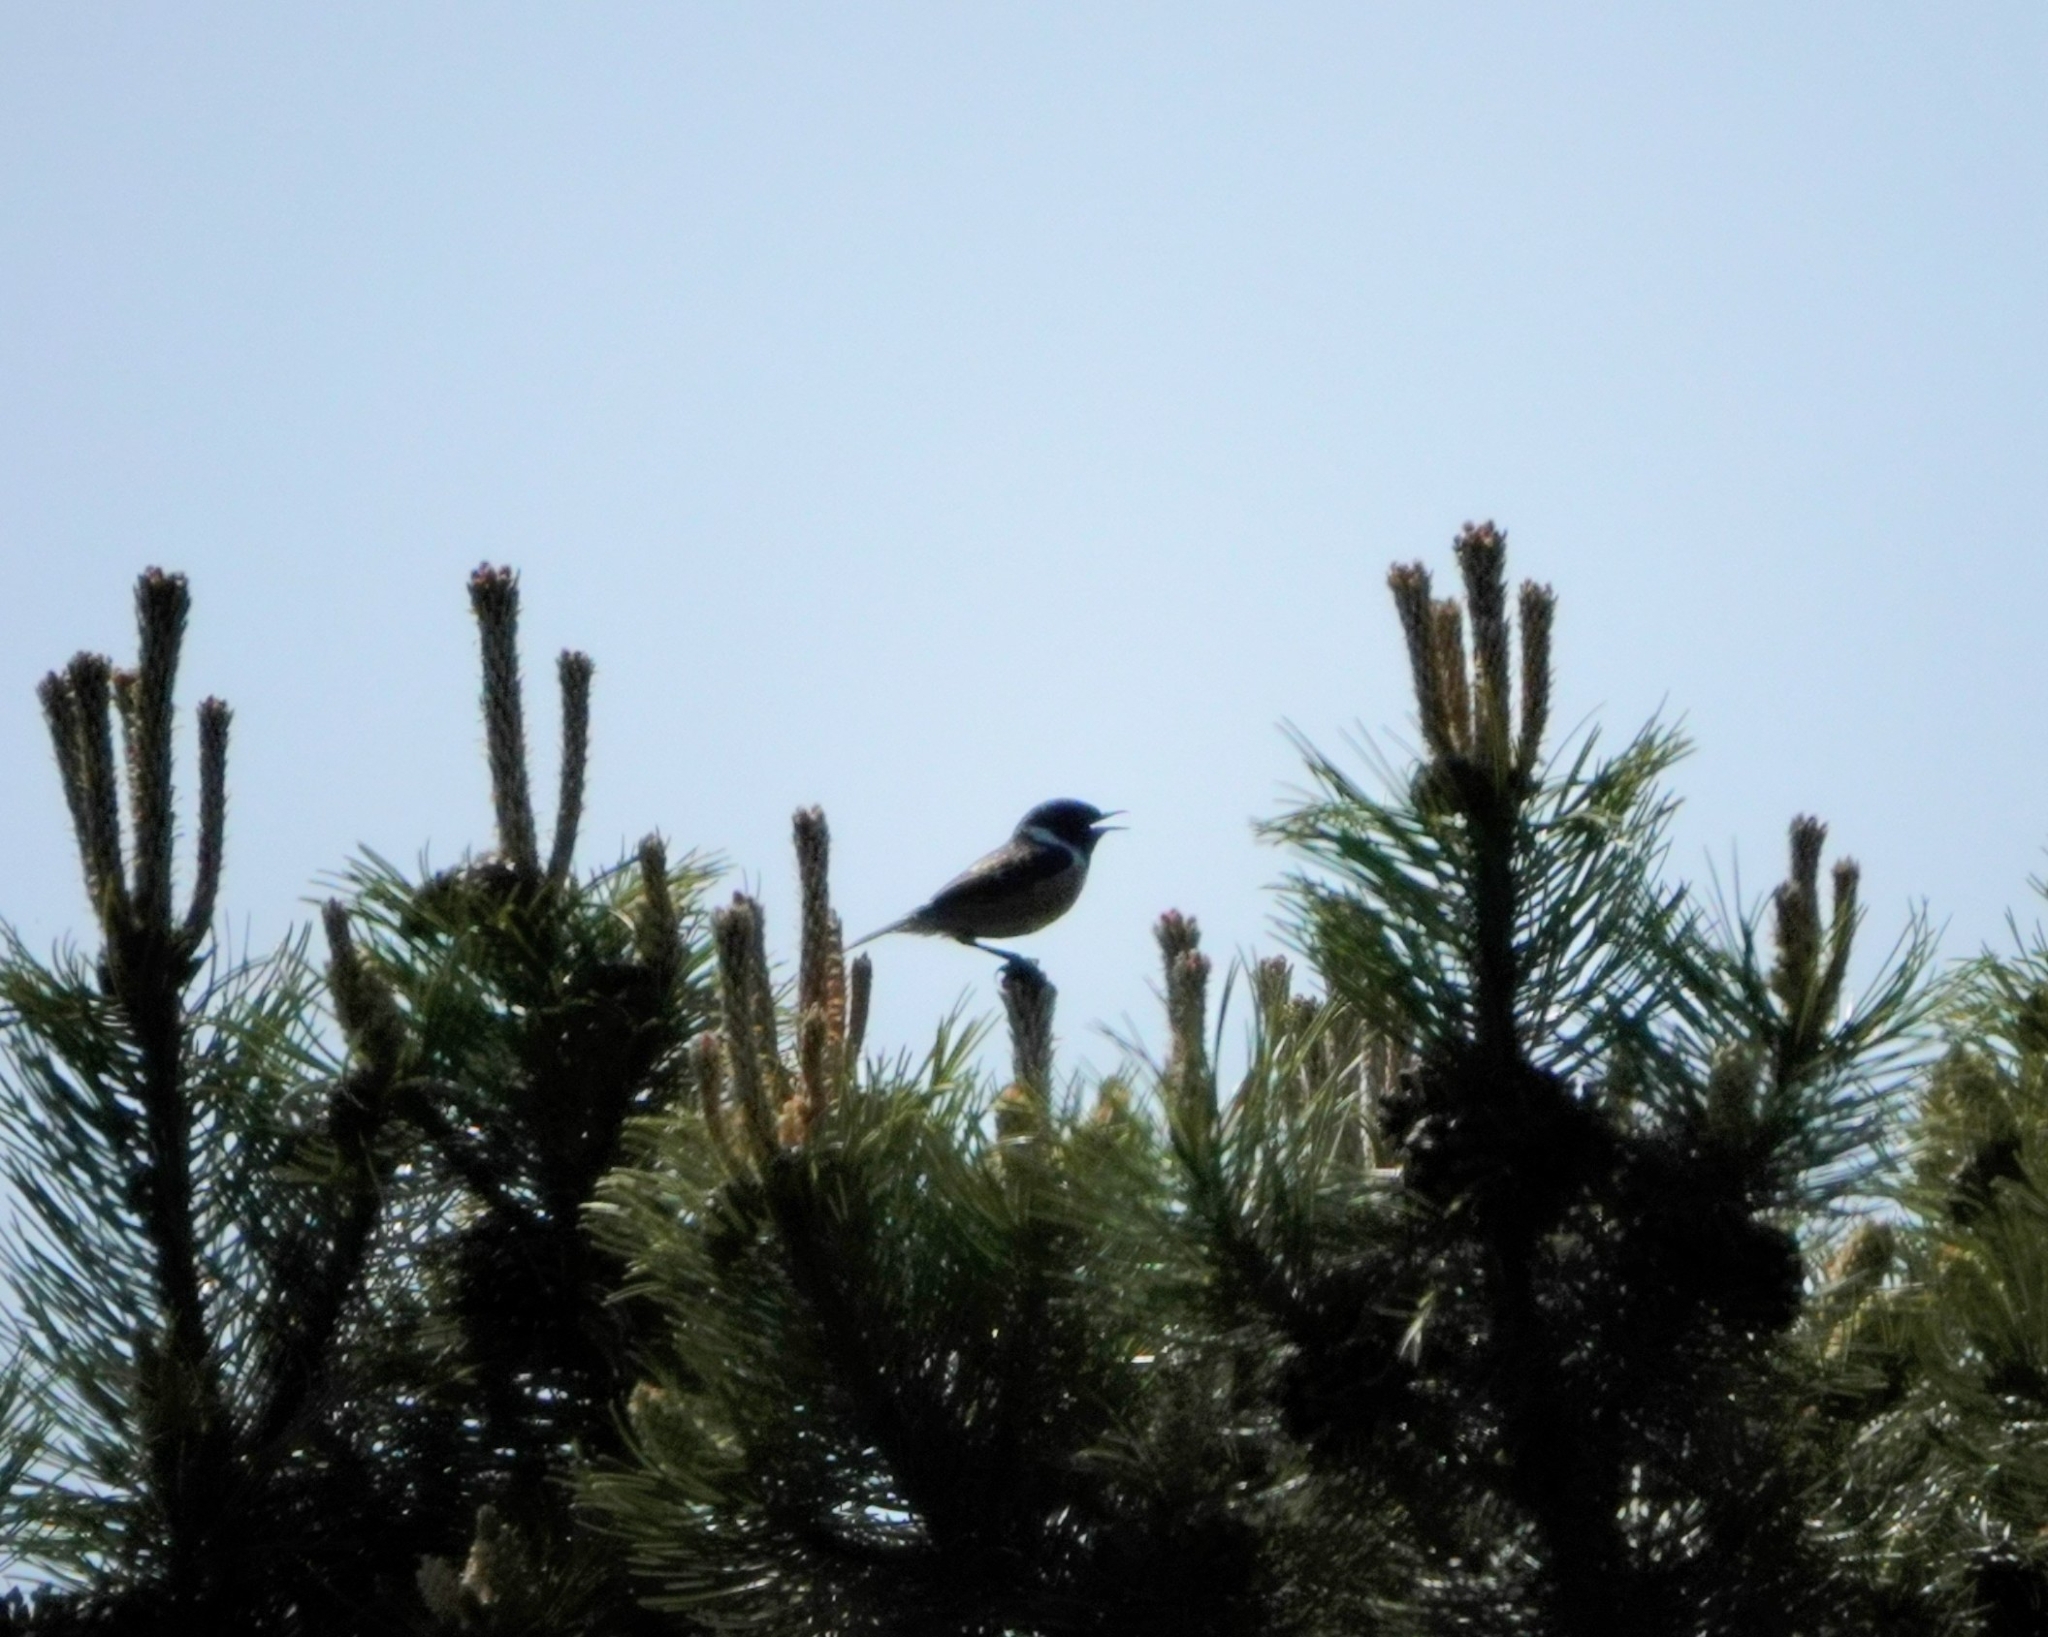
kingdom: Animalia
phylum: Chordata
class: Aves
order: Passeriformes
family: Muscicapidae
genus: Saxicola
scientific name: Saxicola rubicola
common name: European stonechat
